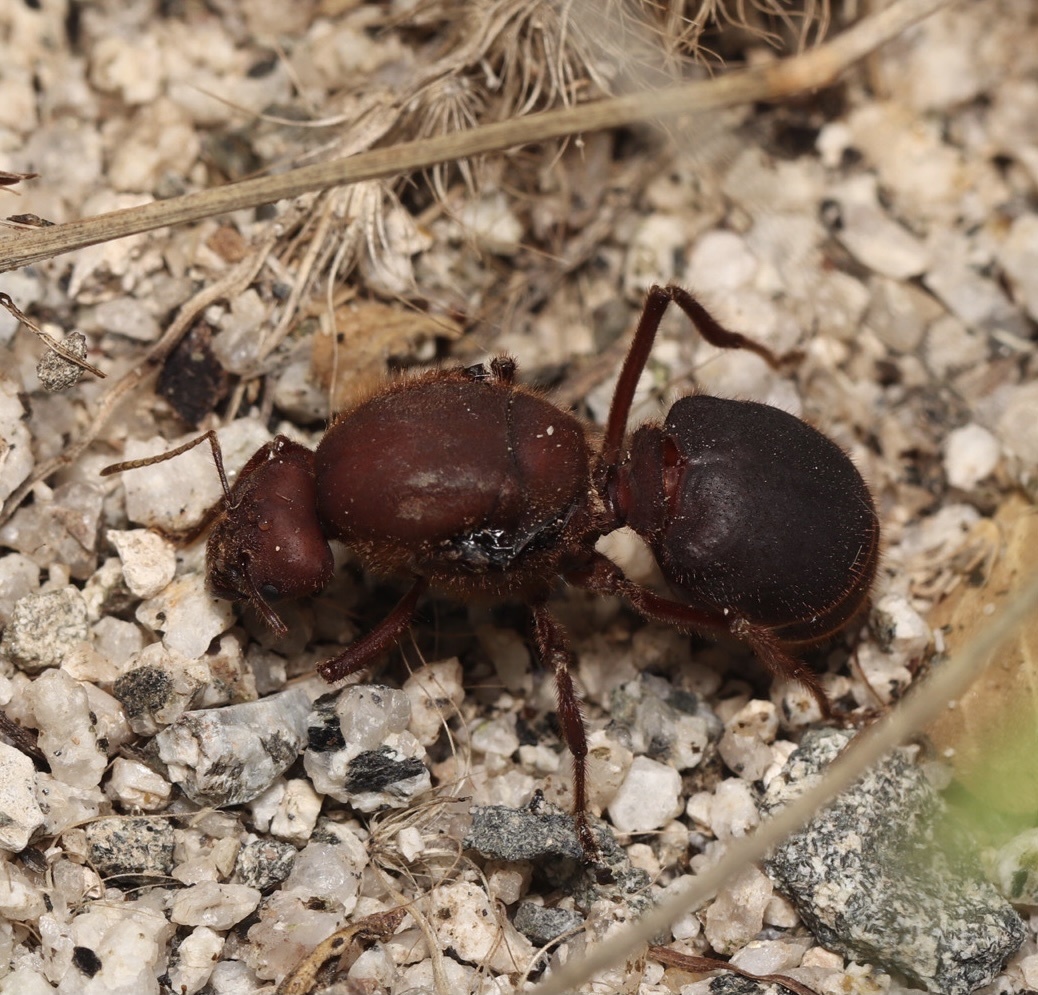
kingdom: Animalia
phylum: Arthropoda
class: Insecta
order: Hymenoptera
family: Formicidae
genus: Atta
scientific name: Atta mexicana
